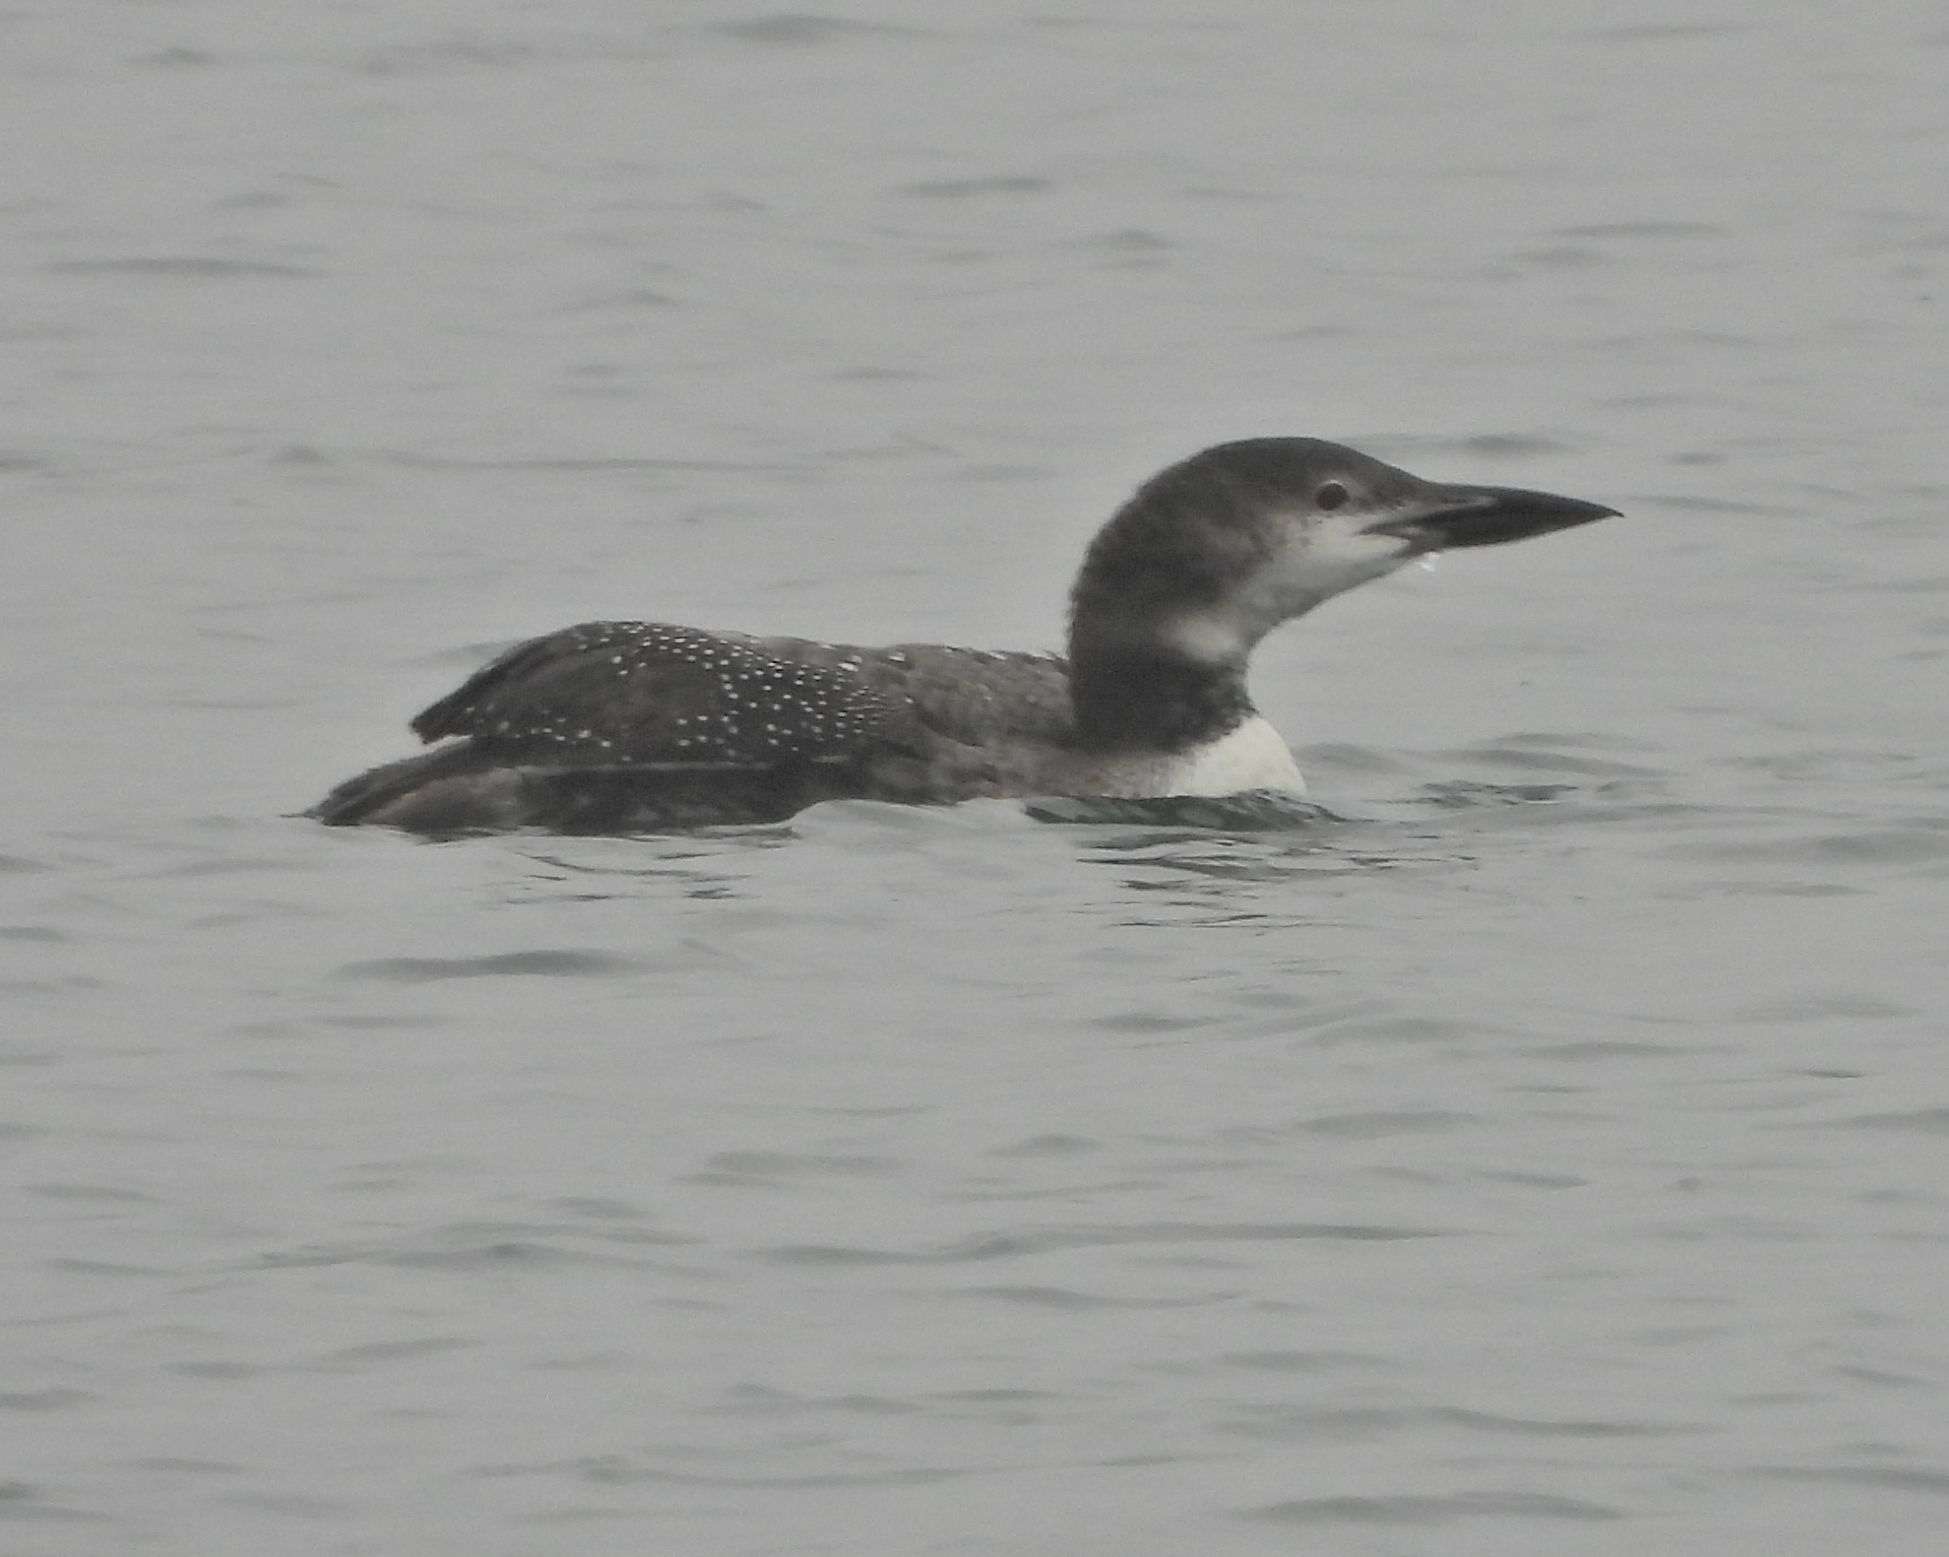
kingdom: Animalia
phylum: Chordata
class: Aves
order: Gaviiformes
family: Gaviidae
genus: Gavia
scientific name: Gavia immer
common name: Common loon
